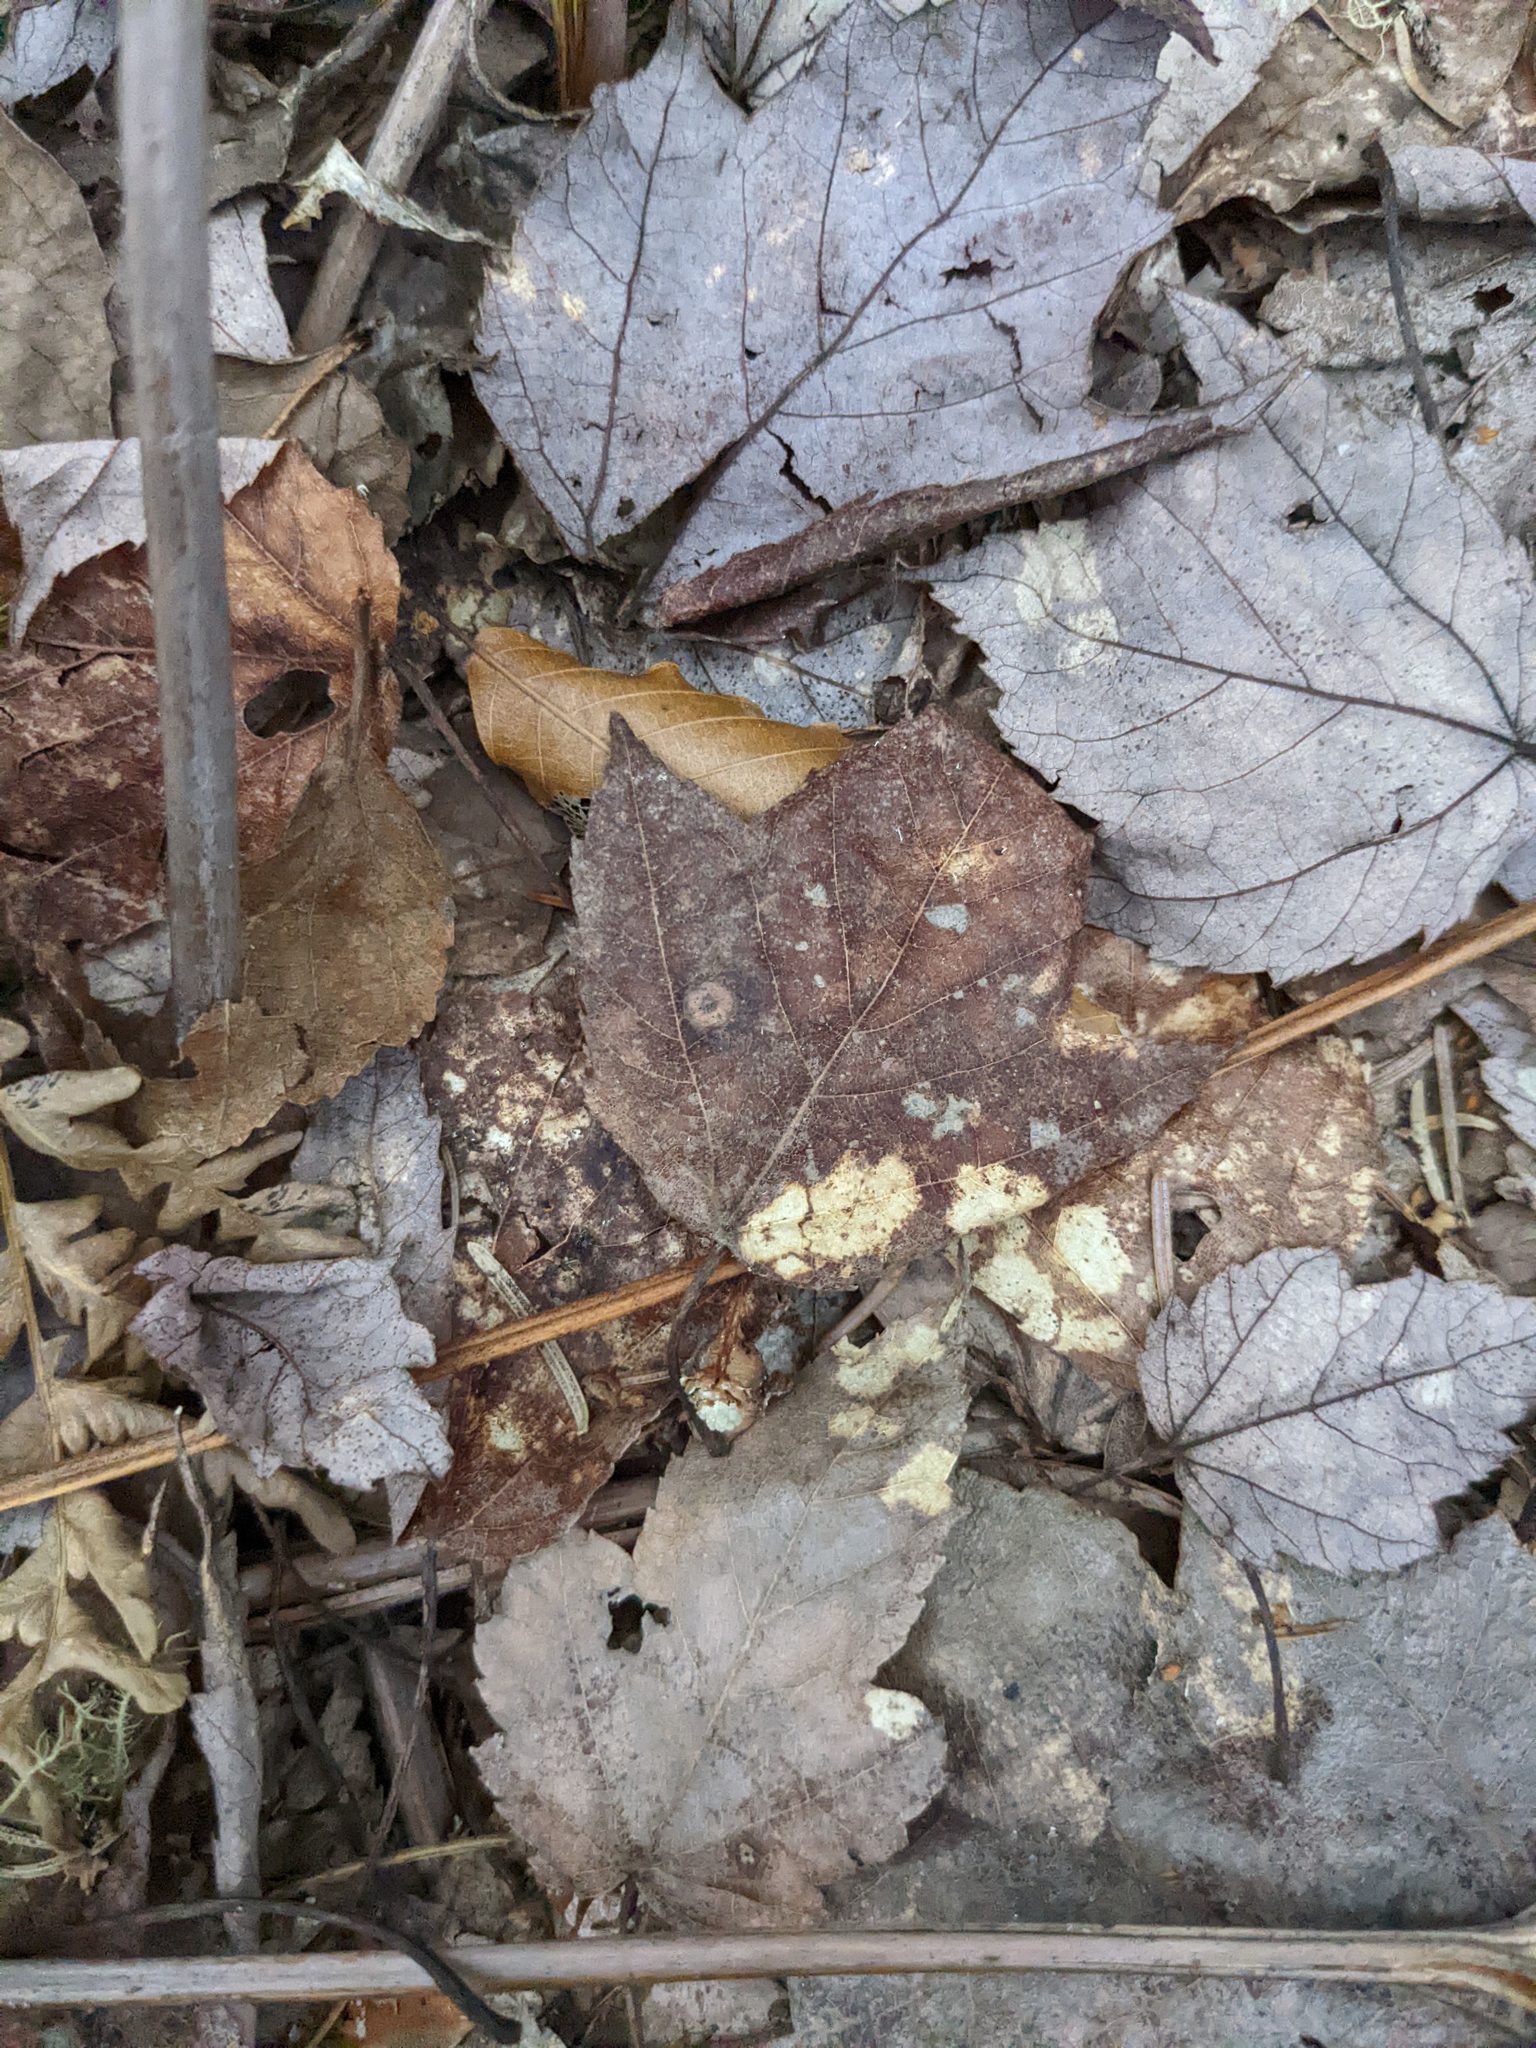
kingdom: Plantae
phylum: Tracheophyta
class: Magnoliopsida
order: Sapindales
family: Sapindaceae
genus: Acer
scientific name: Acer rubrum
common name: Red maple
